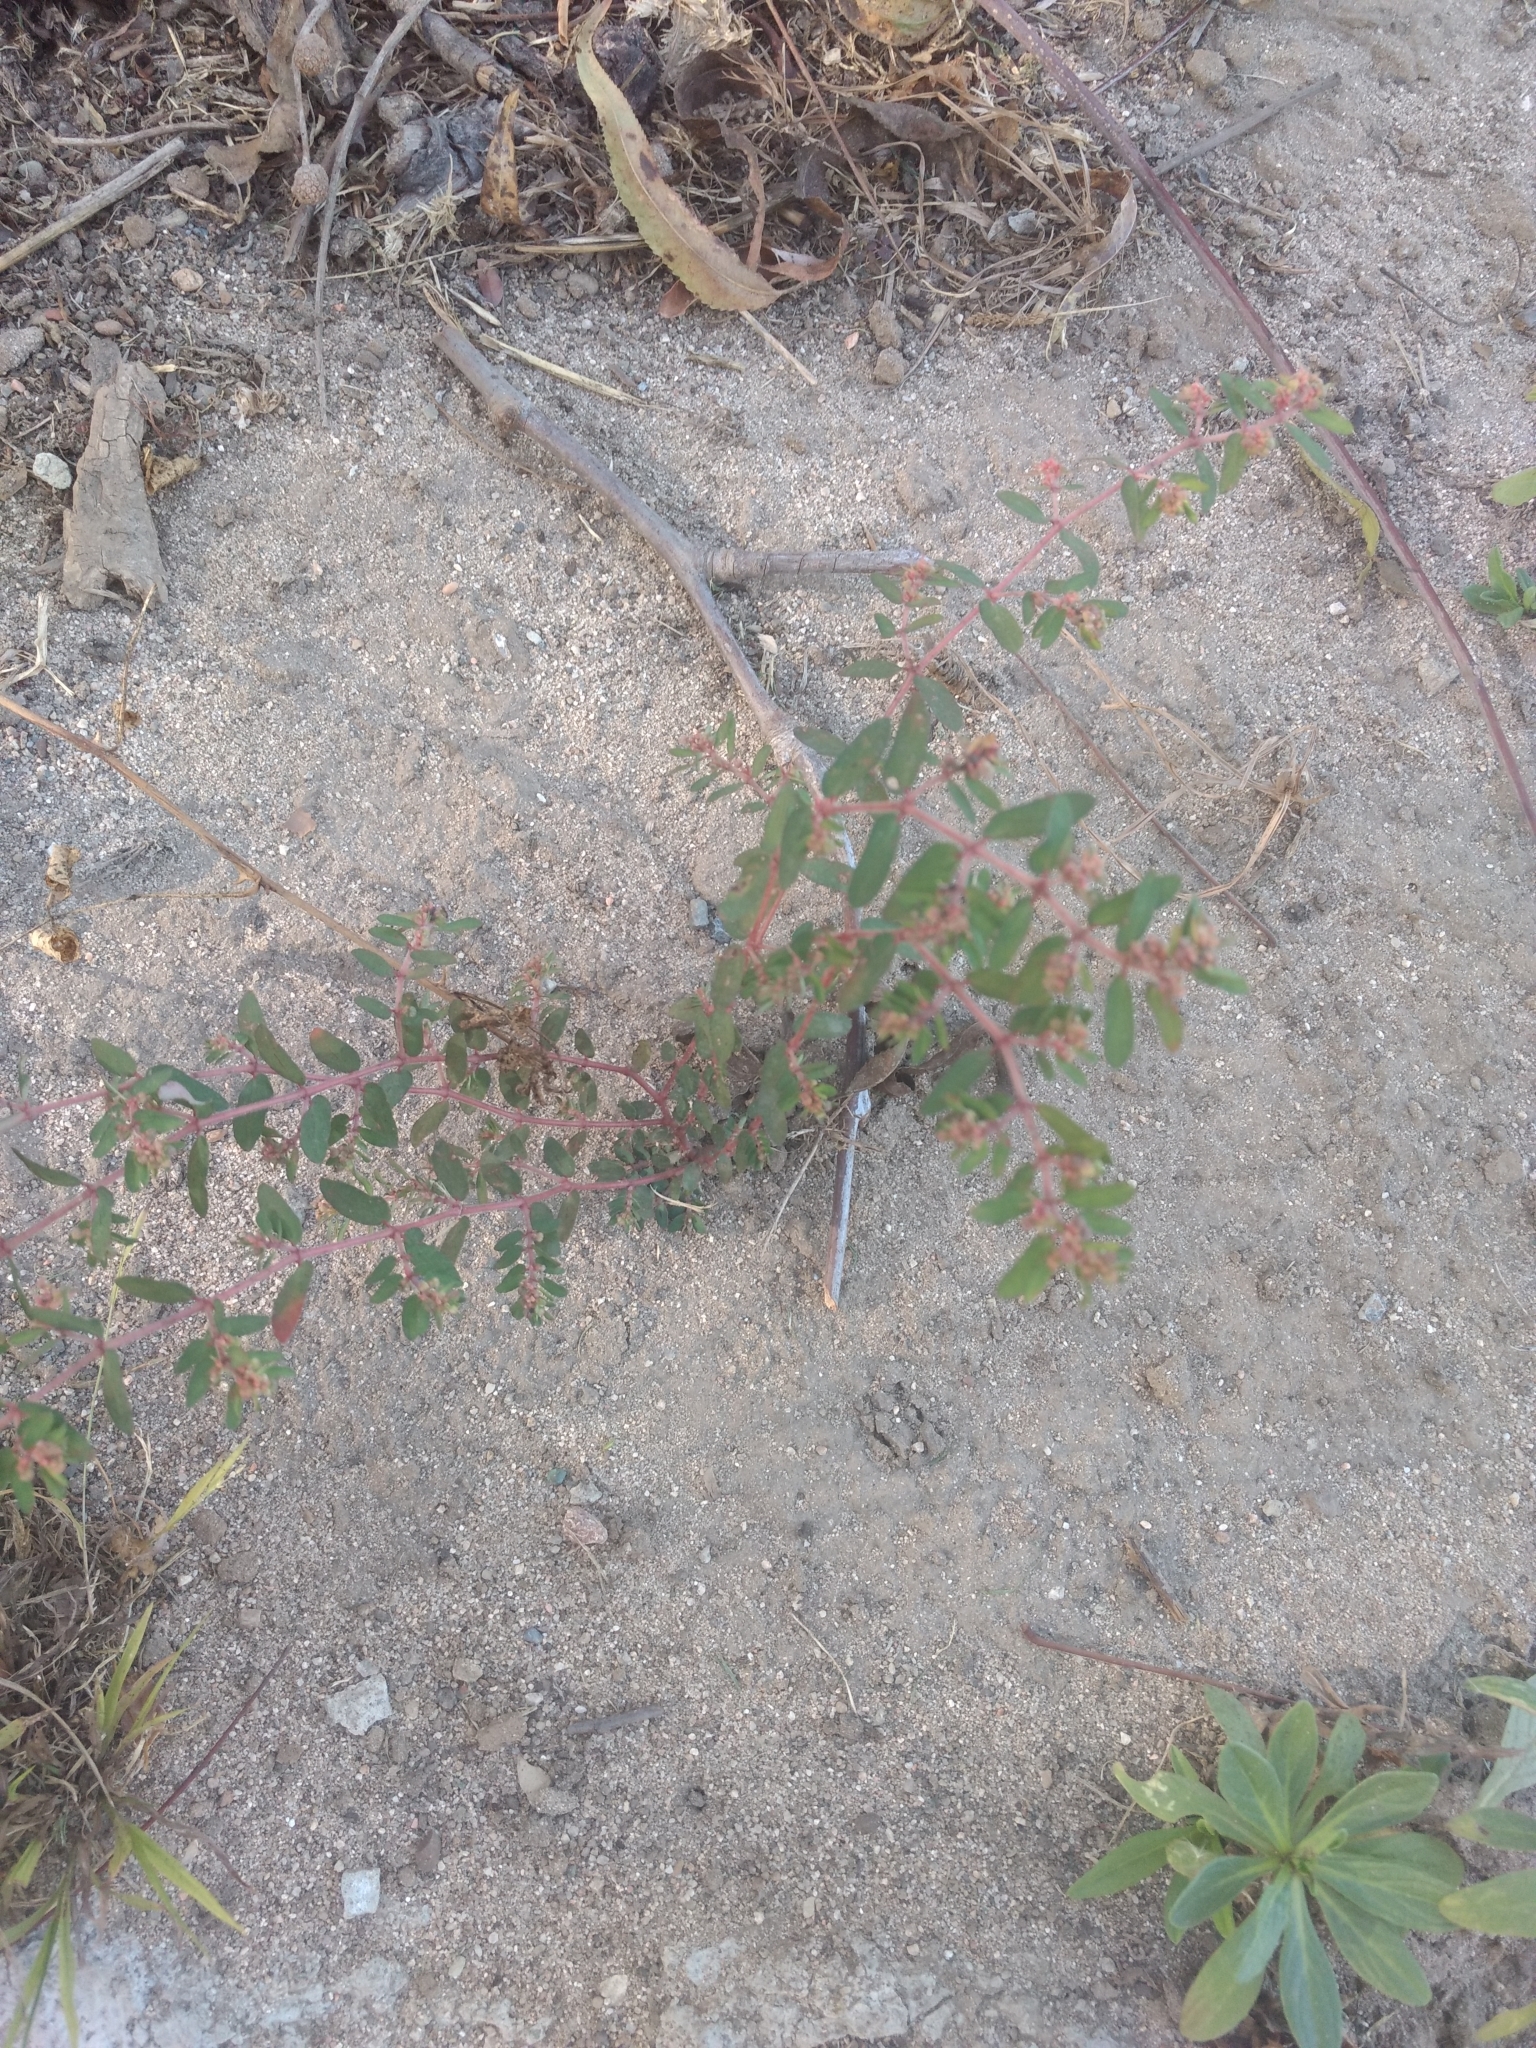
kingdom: Plantae
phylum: Tracheophyta
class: Magnoliopsida
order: Malpighiales
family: Euphorbiaceae
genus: Euphorbia
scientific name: Euphorbia maculata
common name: Spotted spurge
